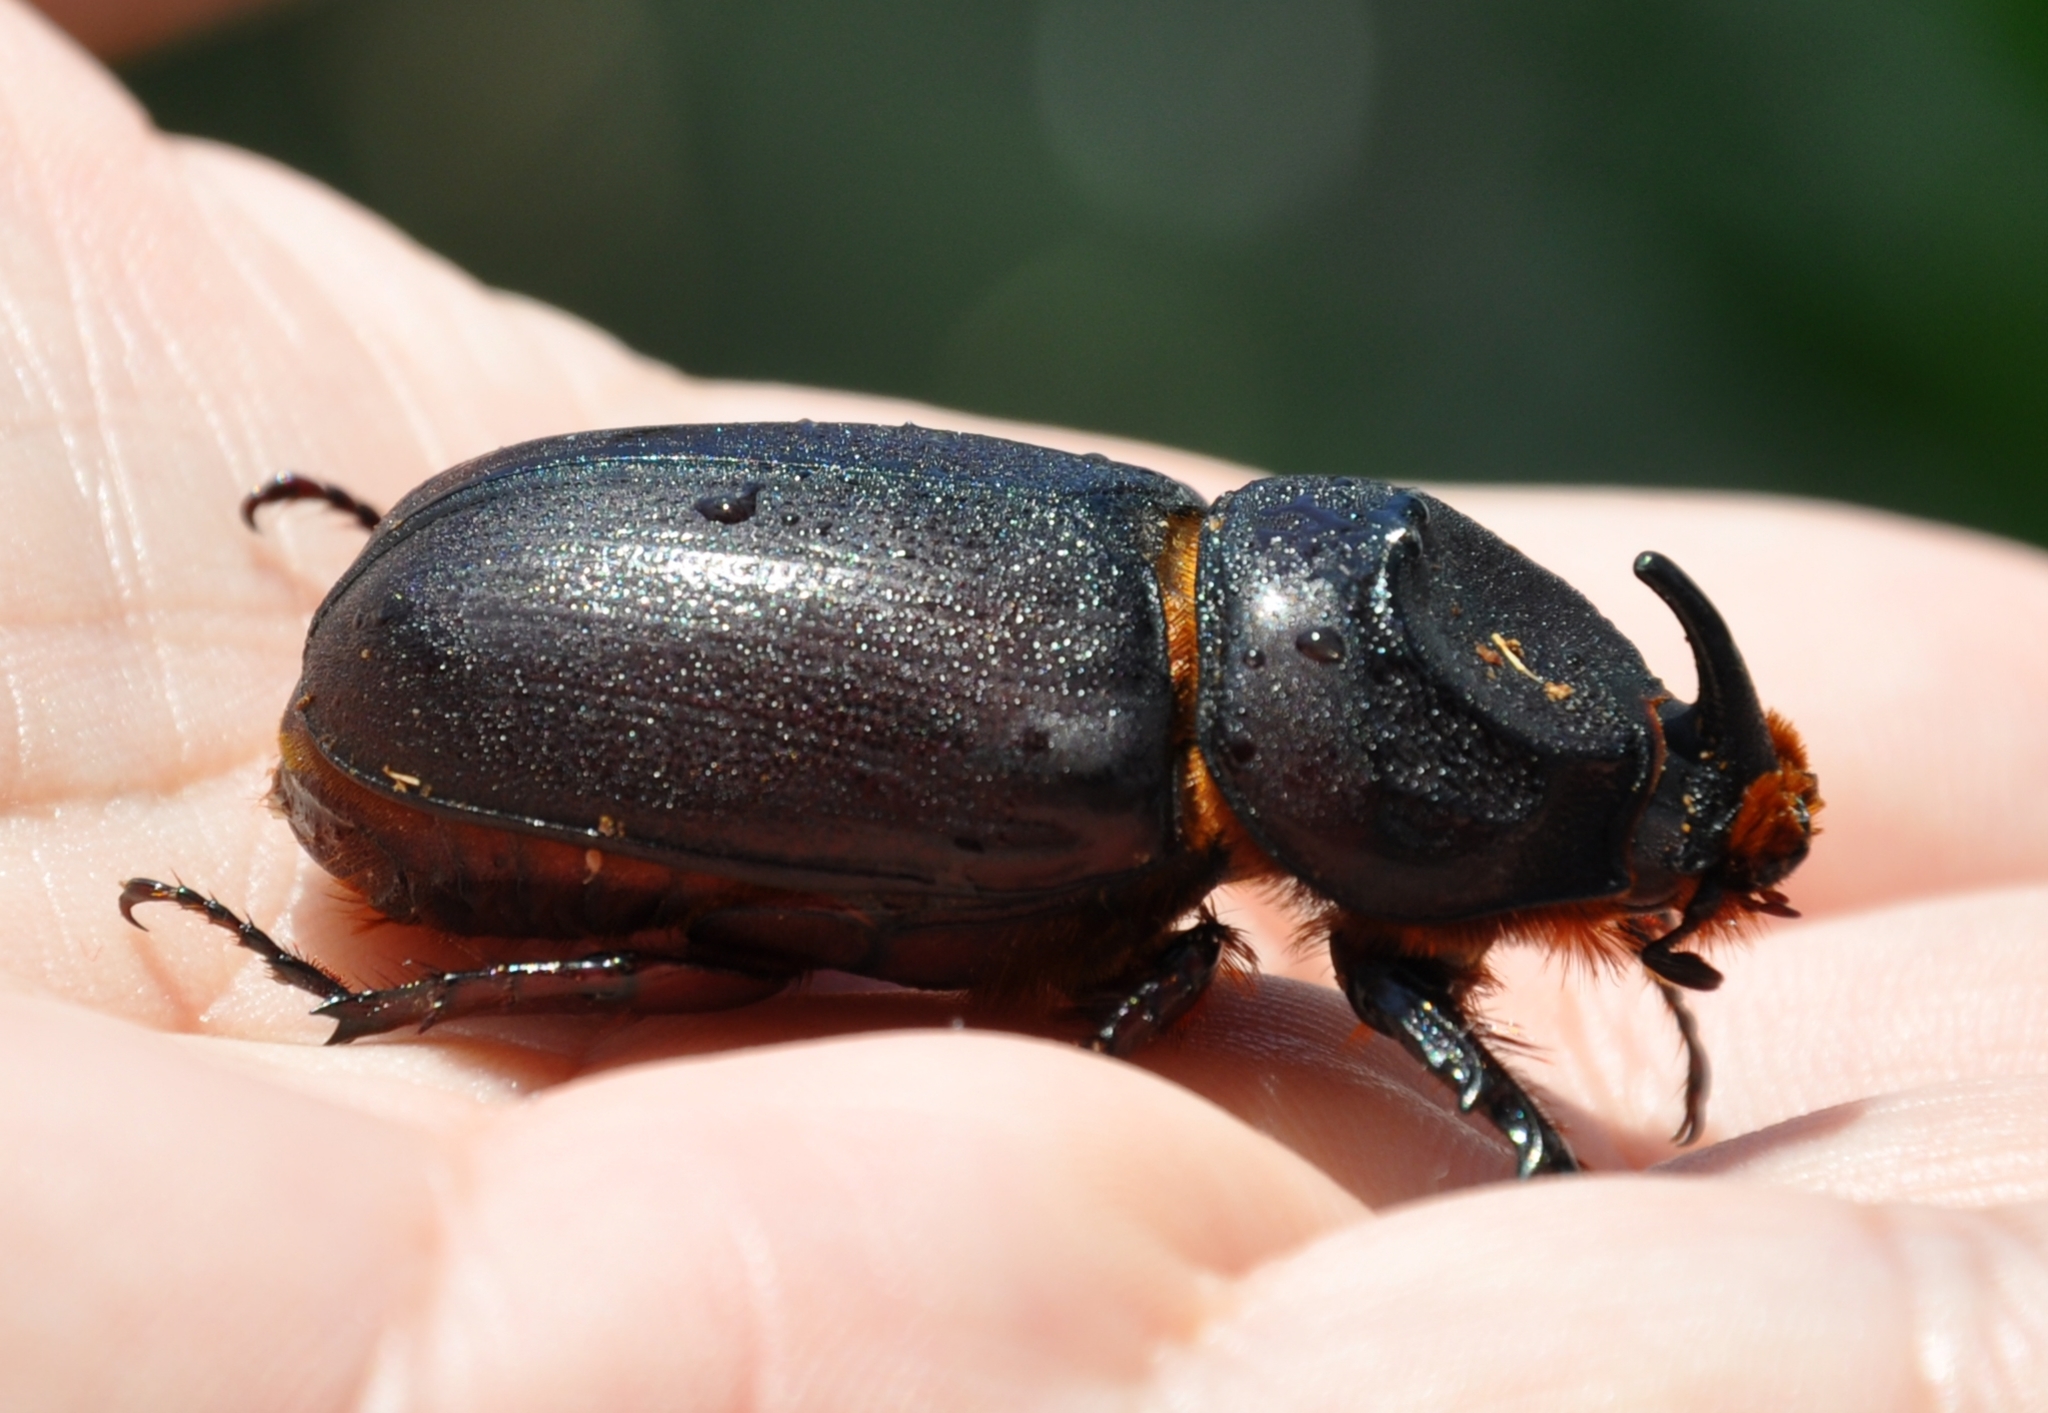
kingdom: Animalia
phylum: Arthropoda
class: Insecta
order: Coleoptera
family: Scarabaeidae
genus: Oryctes
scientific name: Oryctes rhinoceros
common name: Coconut rhinoceros beetle
